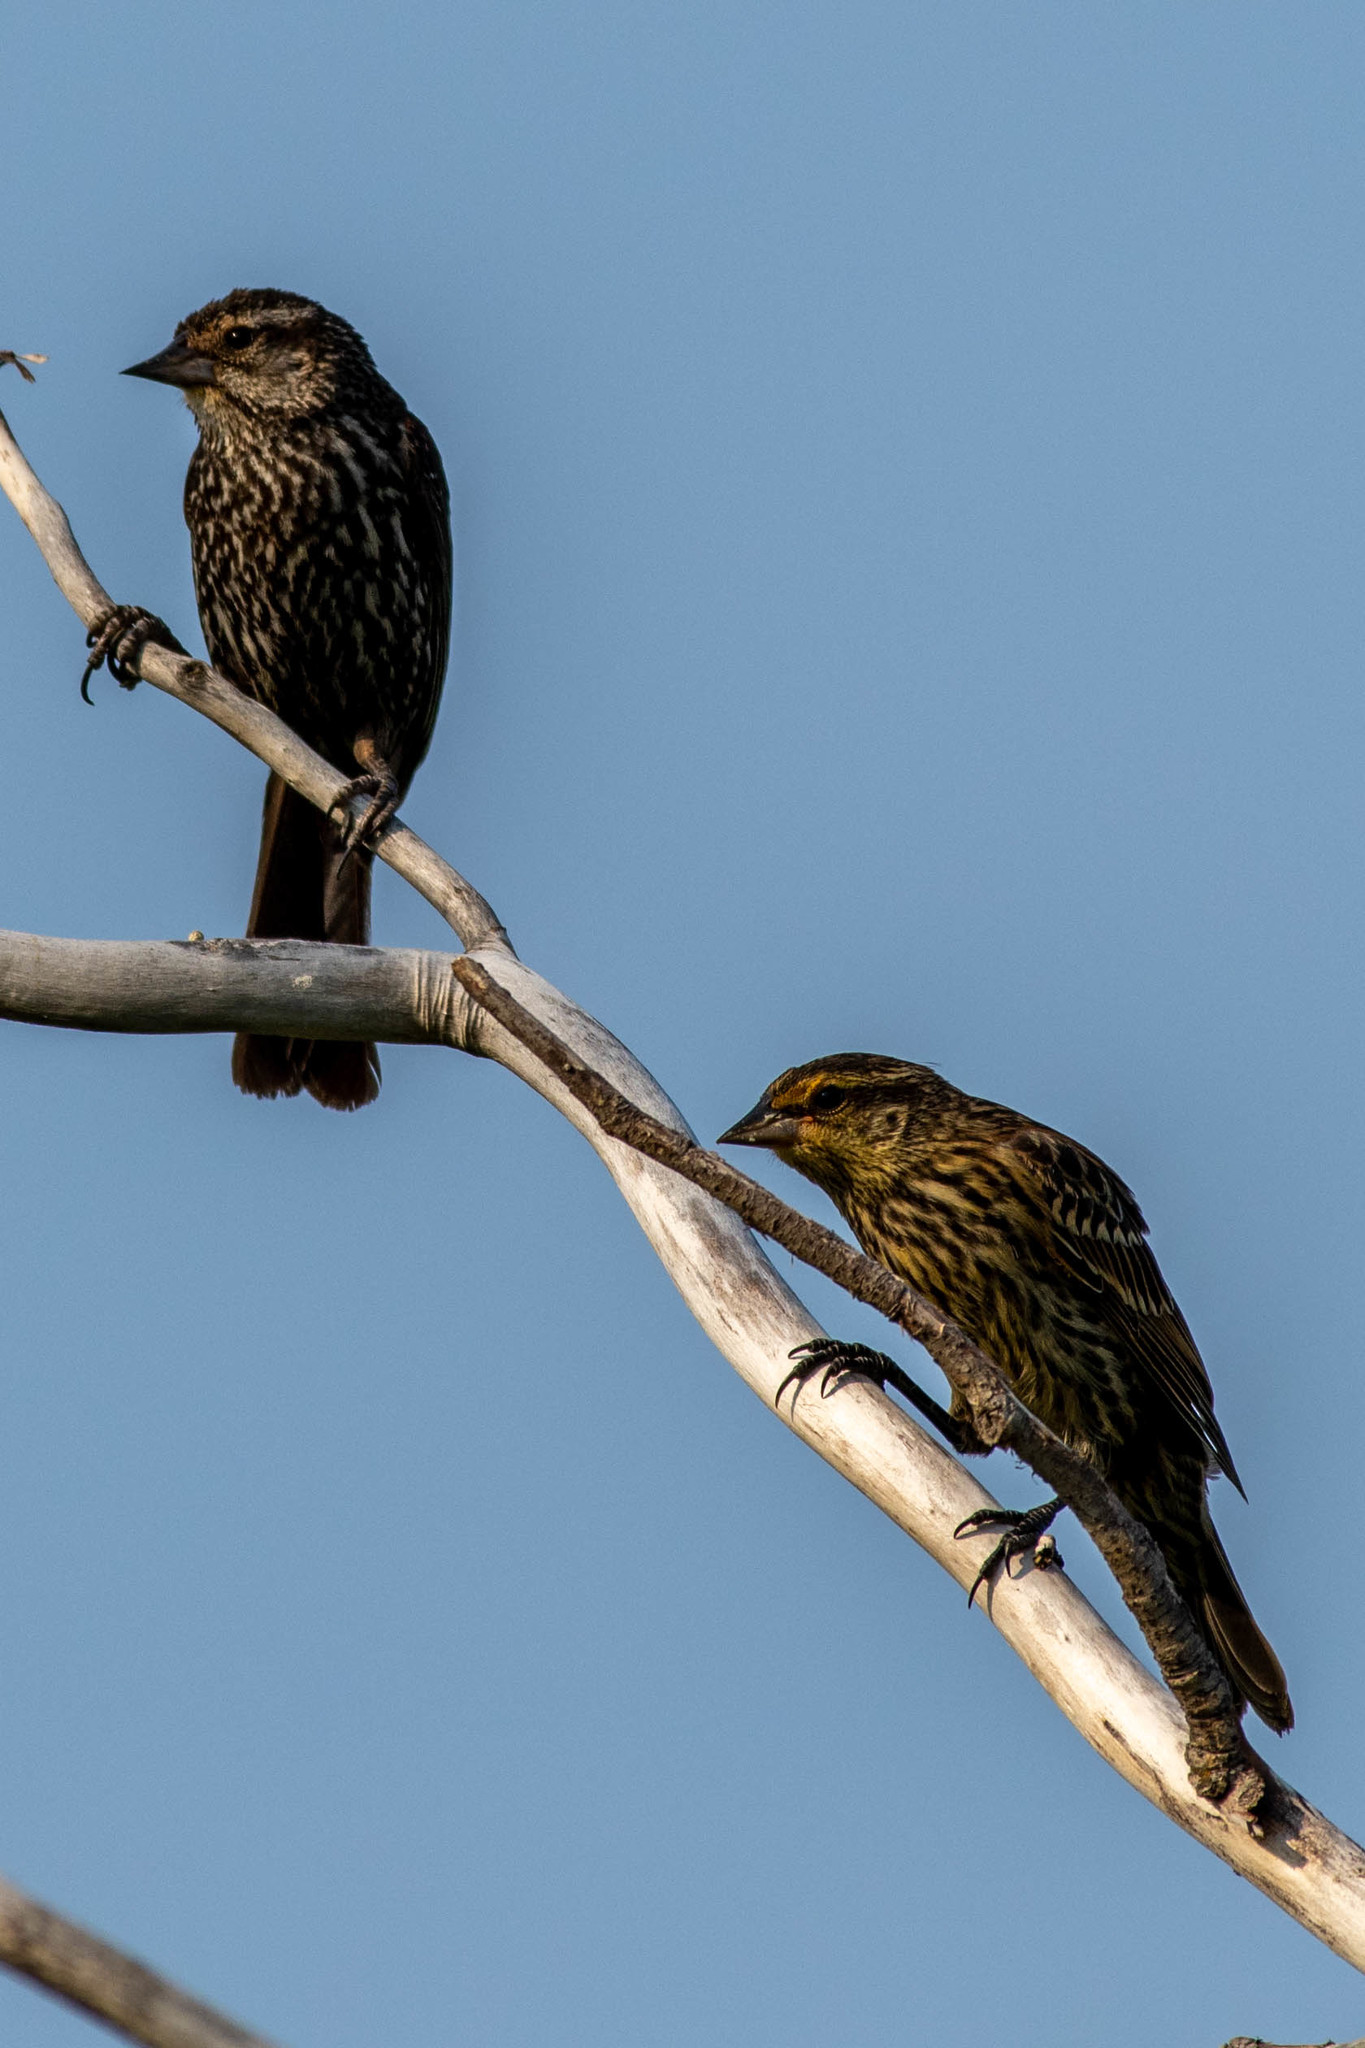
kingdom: Animalia
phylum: Chordata
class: Aves
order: Passeriformes
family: Icteridae
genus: Agelaius
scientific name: Agelaius phoeniceus
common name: Red-winged blackbird
